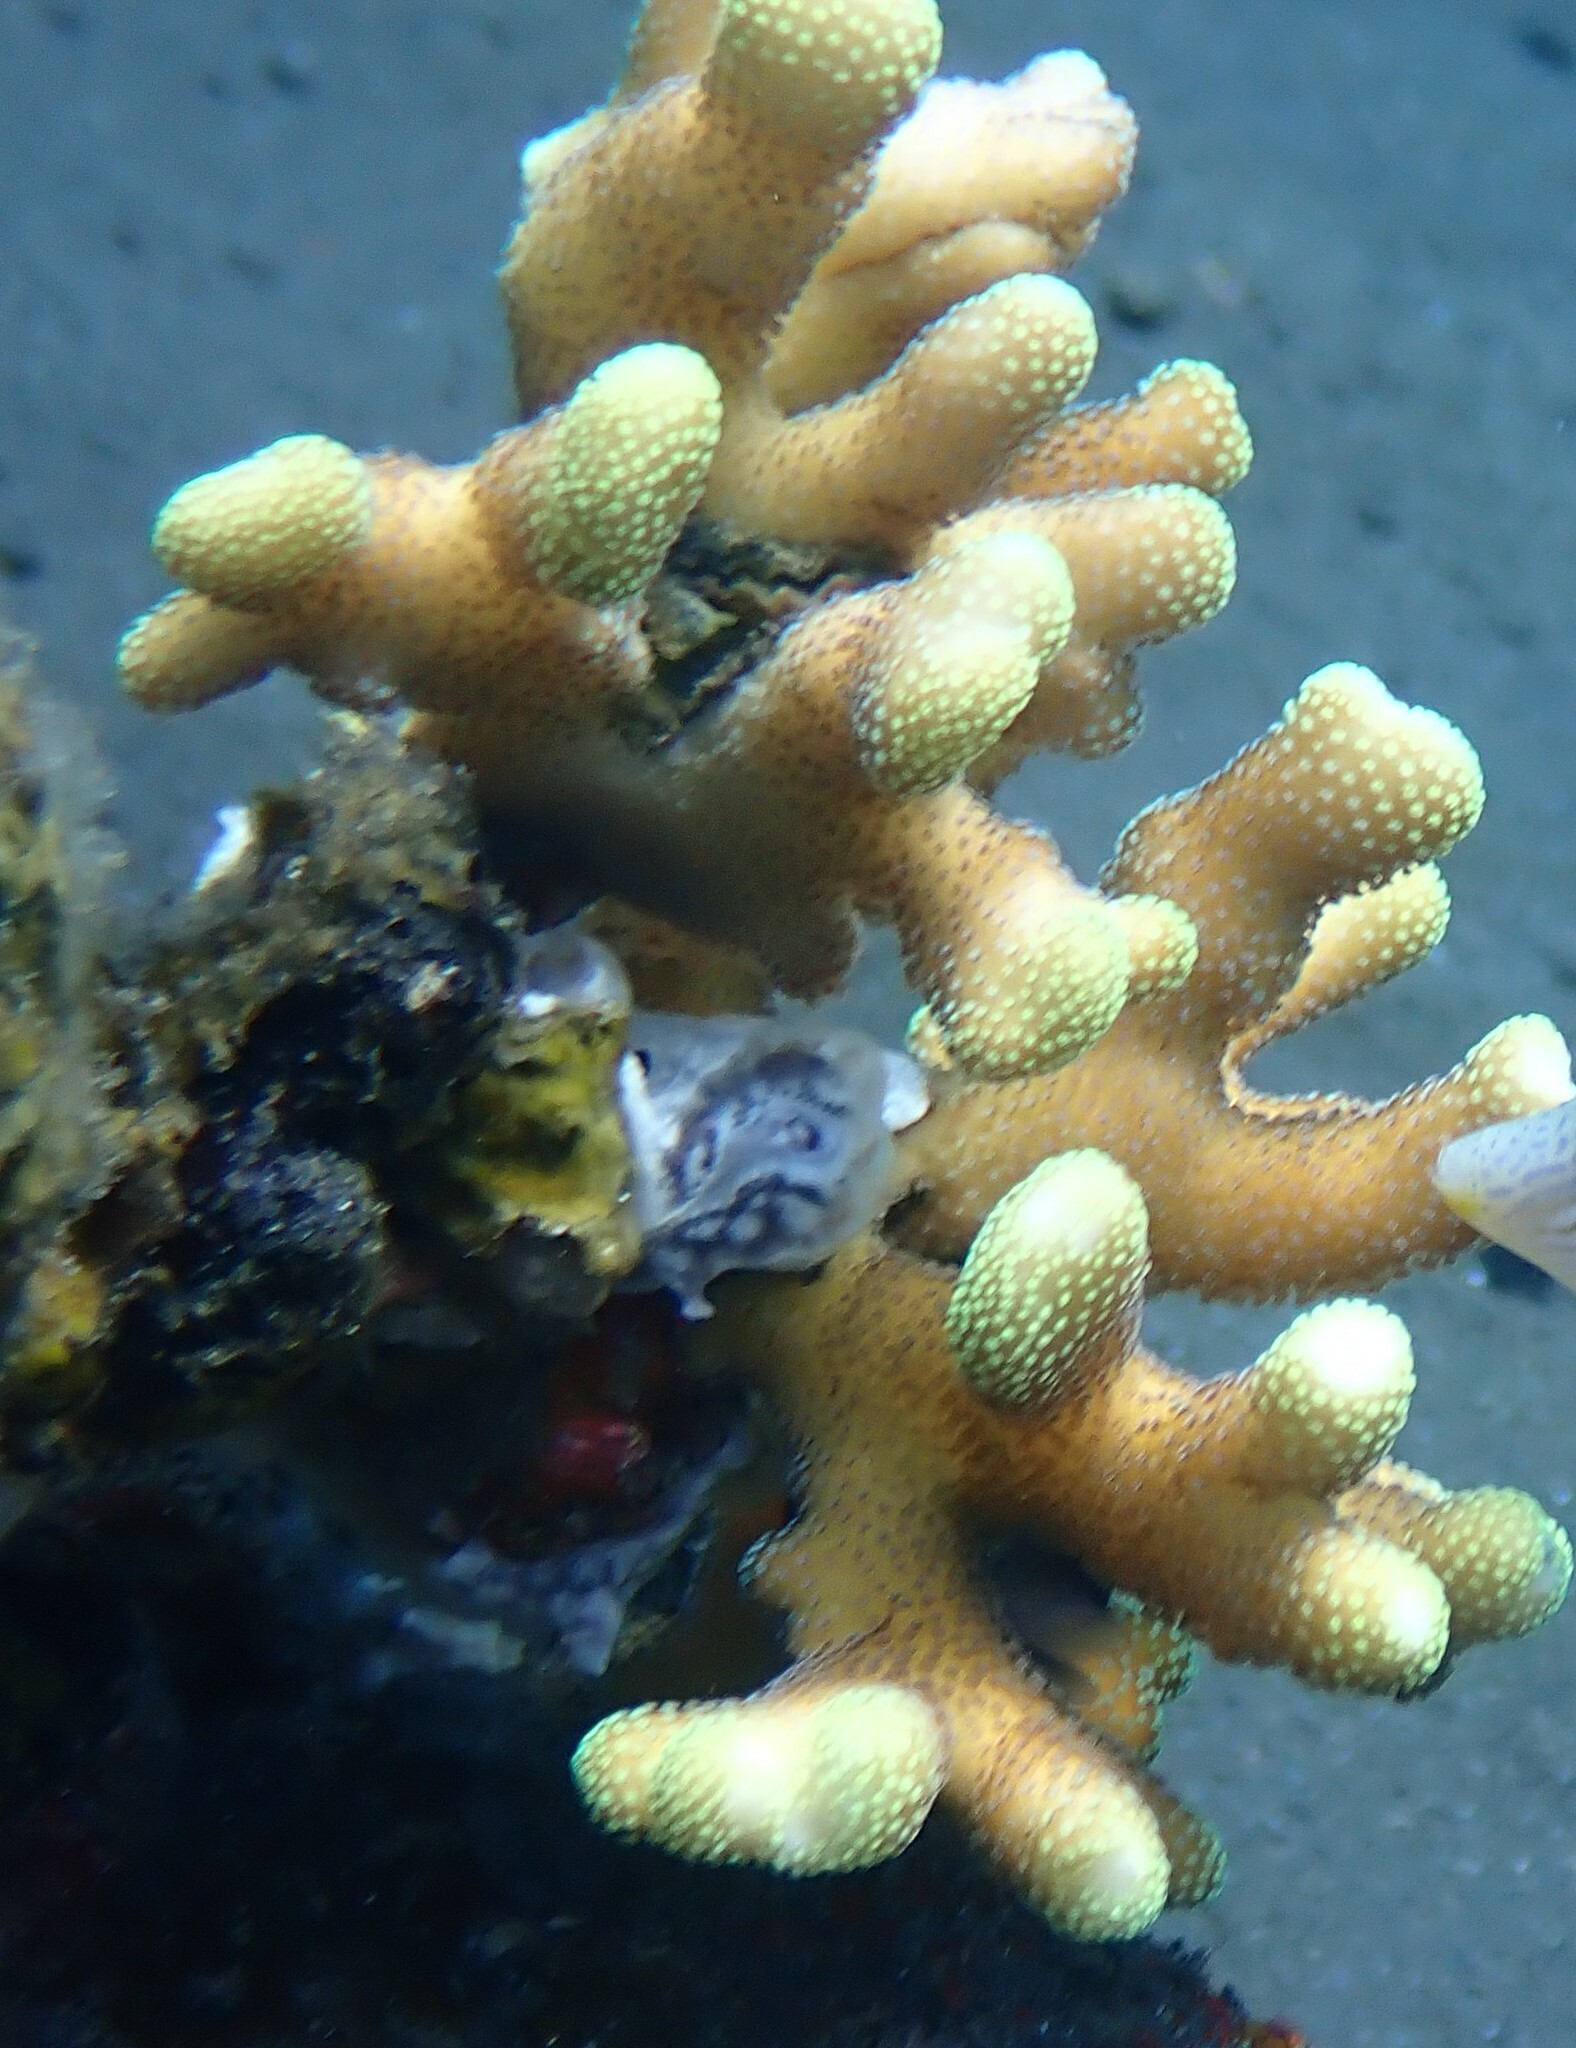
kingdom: Animalia
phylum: Cnidaria
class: Anthozoa
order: Scleractinia
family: Pocilloporidae
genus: Stylophora
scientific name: Stylophora
